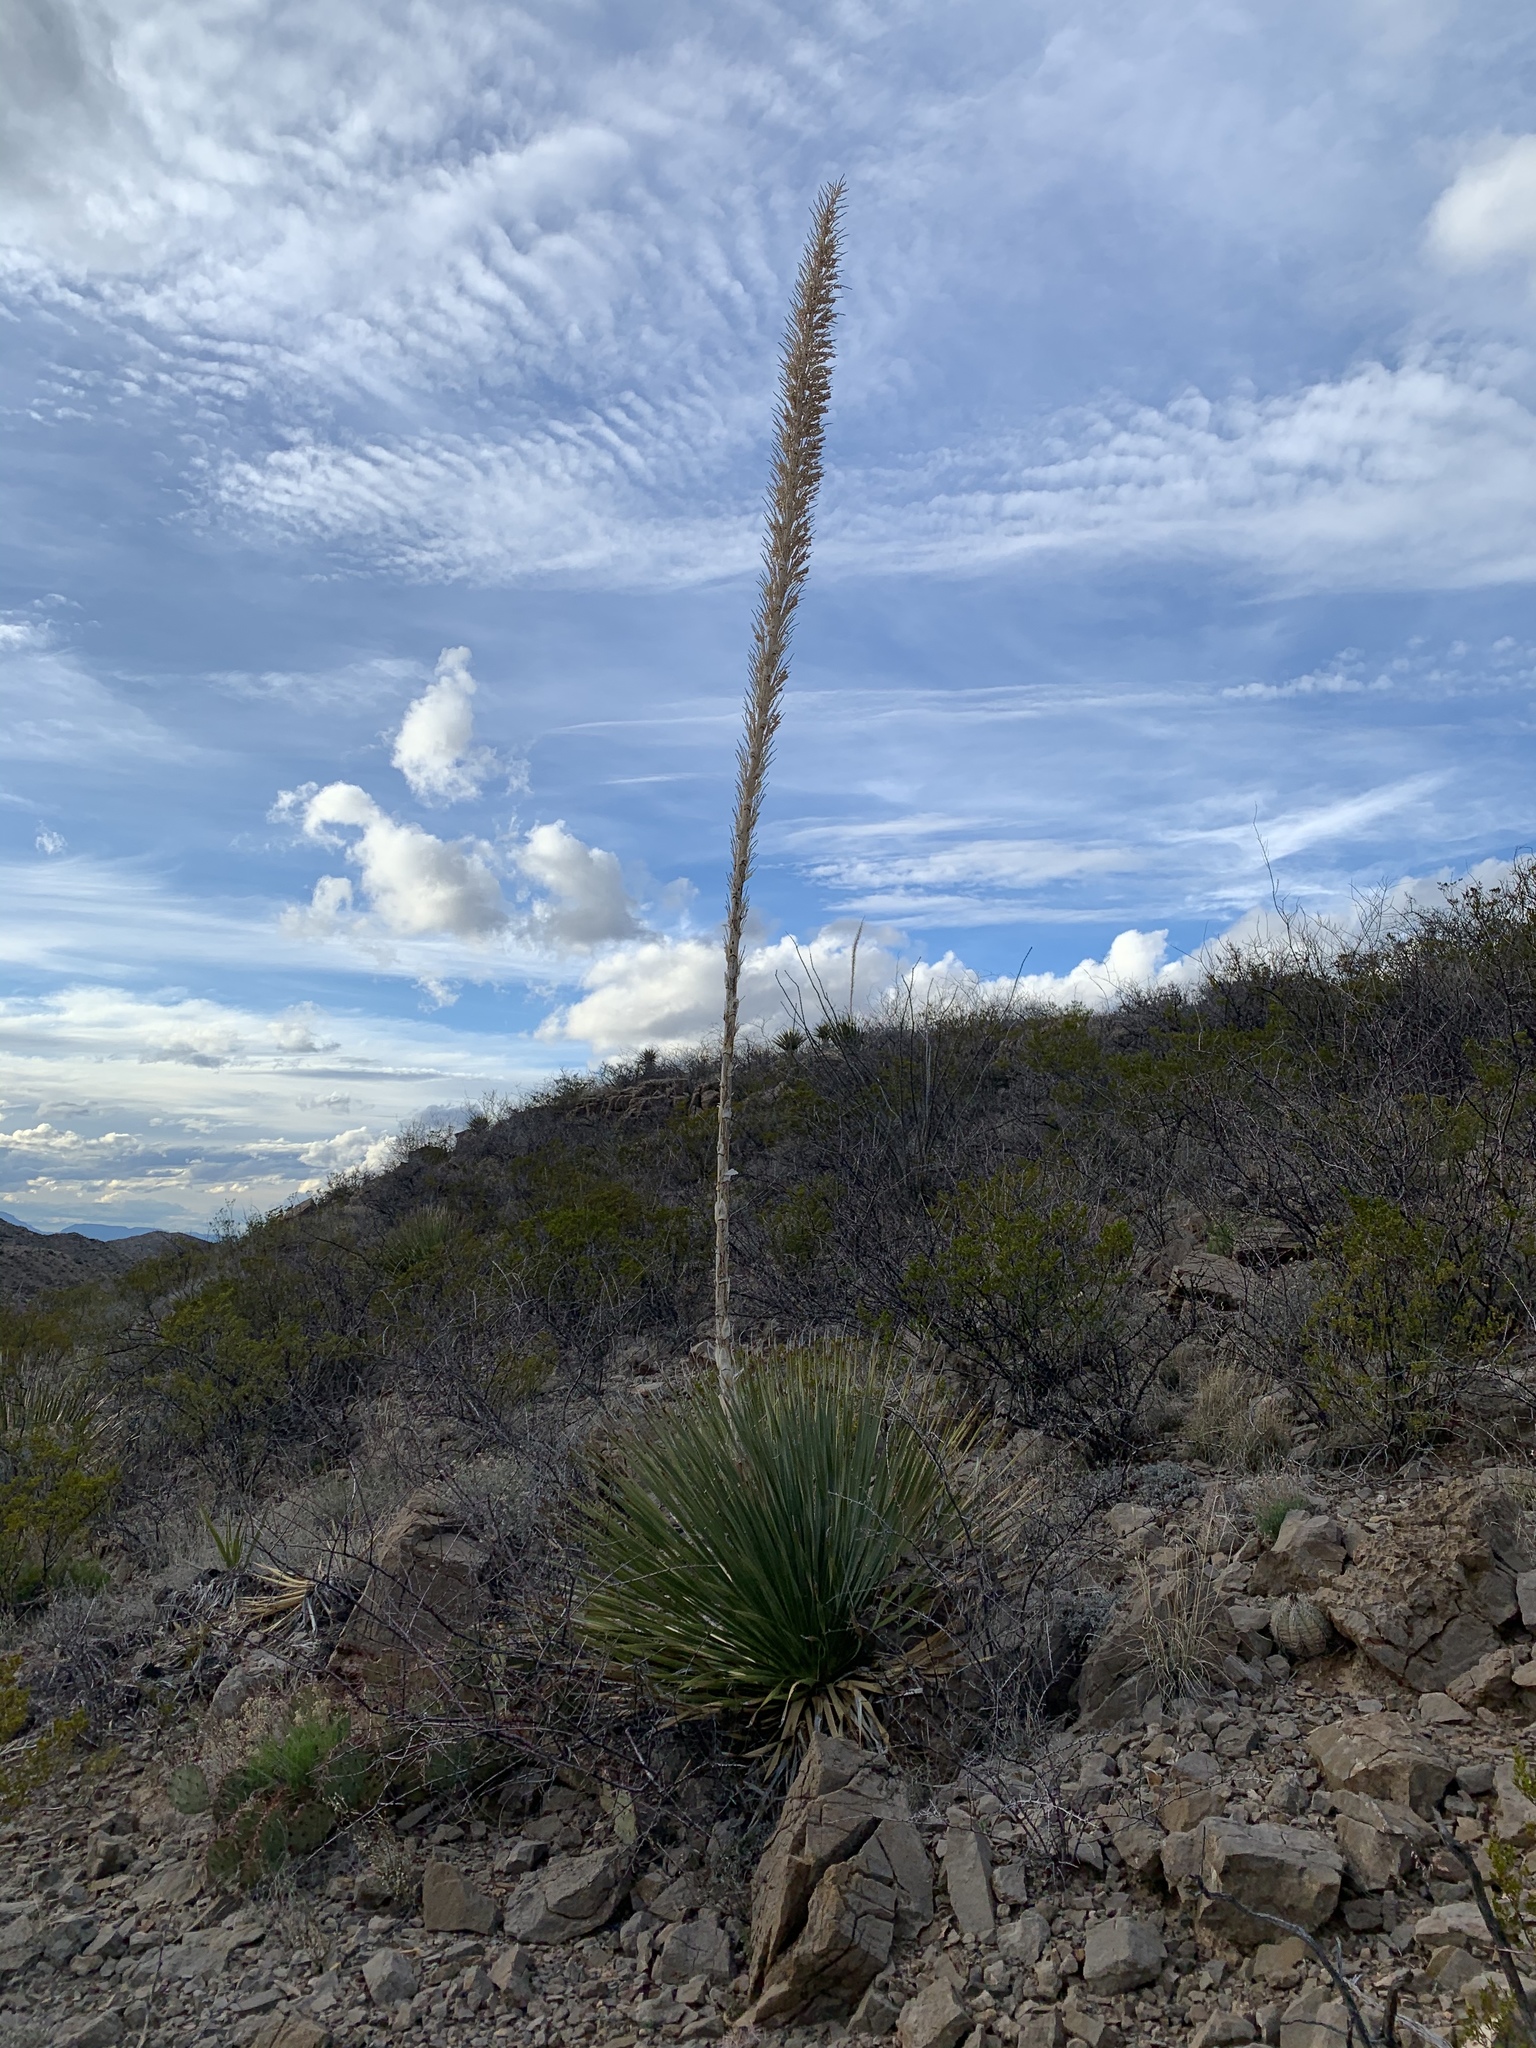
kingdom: Plantae
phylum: Tracheophyta
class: Liliopsida
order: Asparagales
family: Asparagaceae
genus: Dasylirion
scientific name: Dasylirion wheeleri
